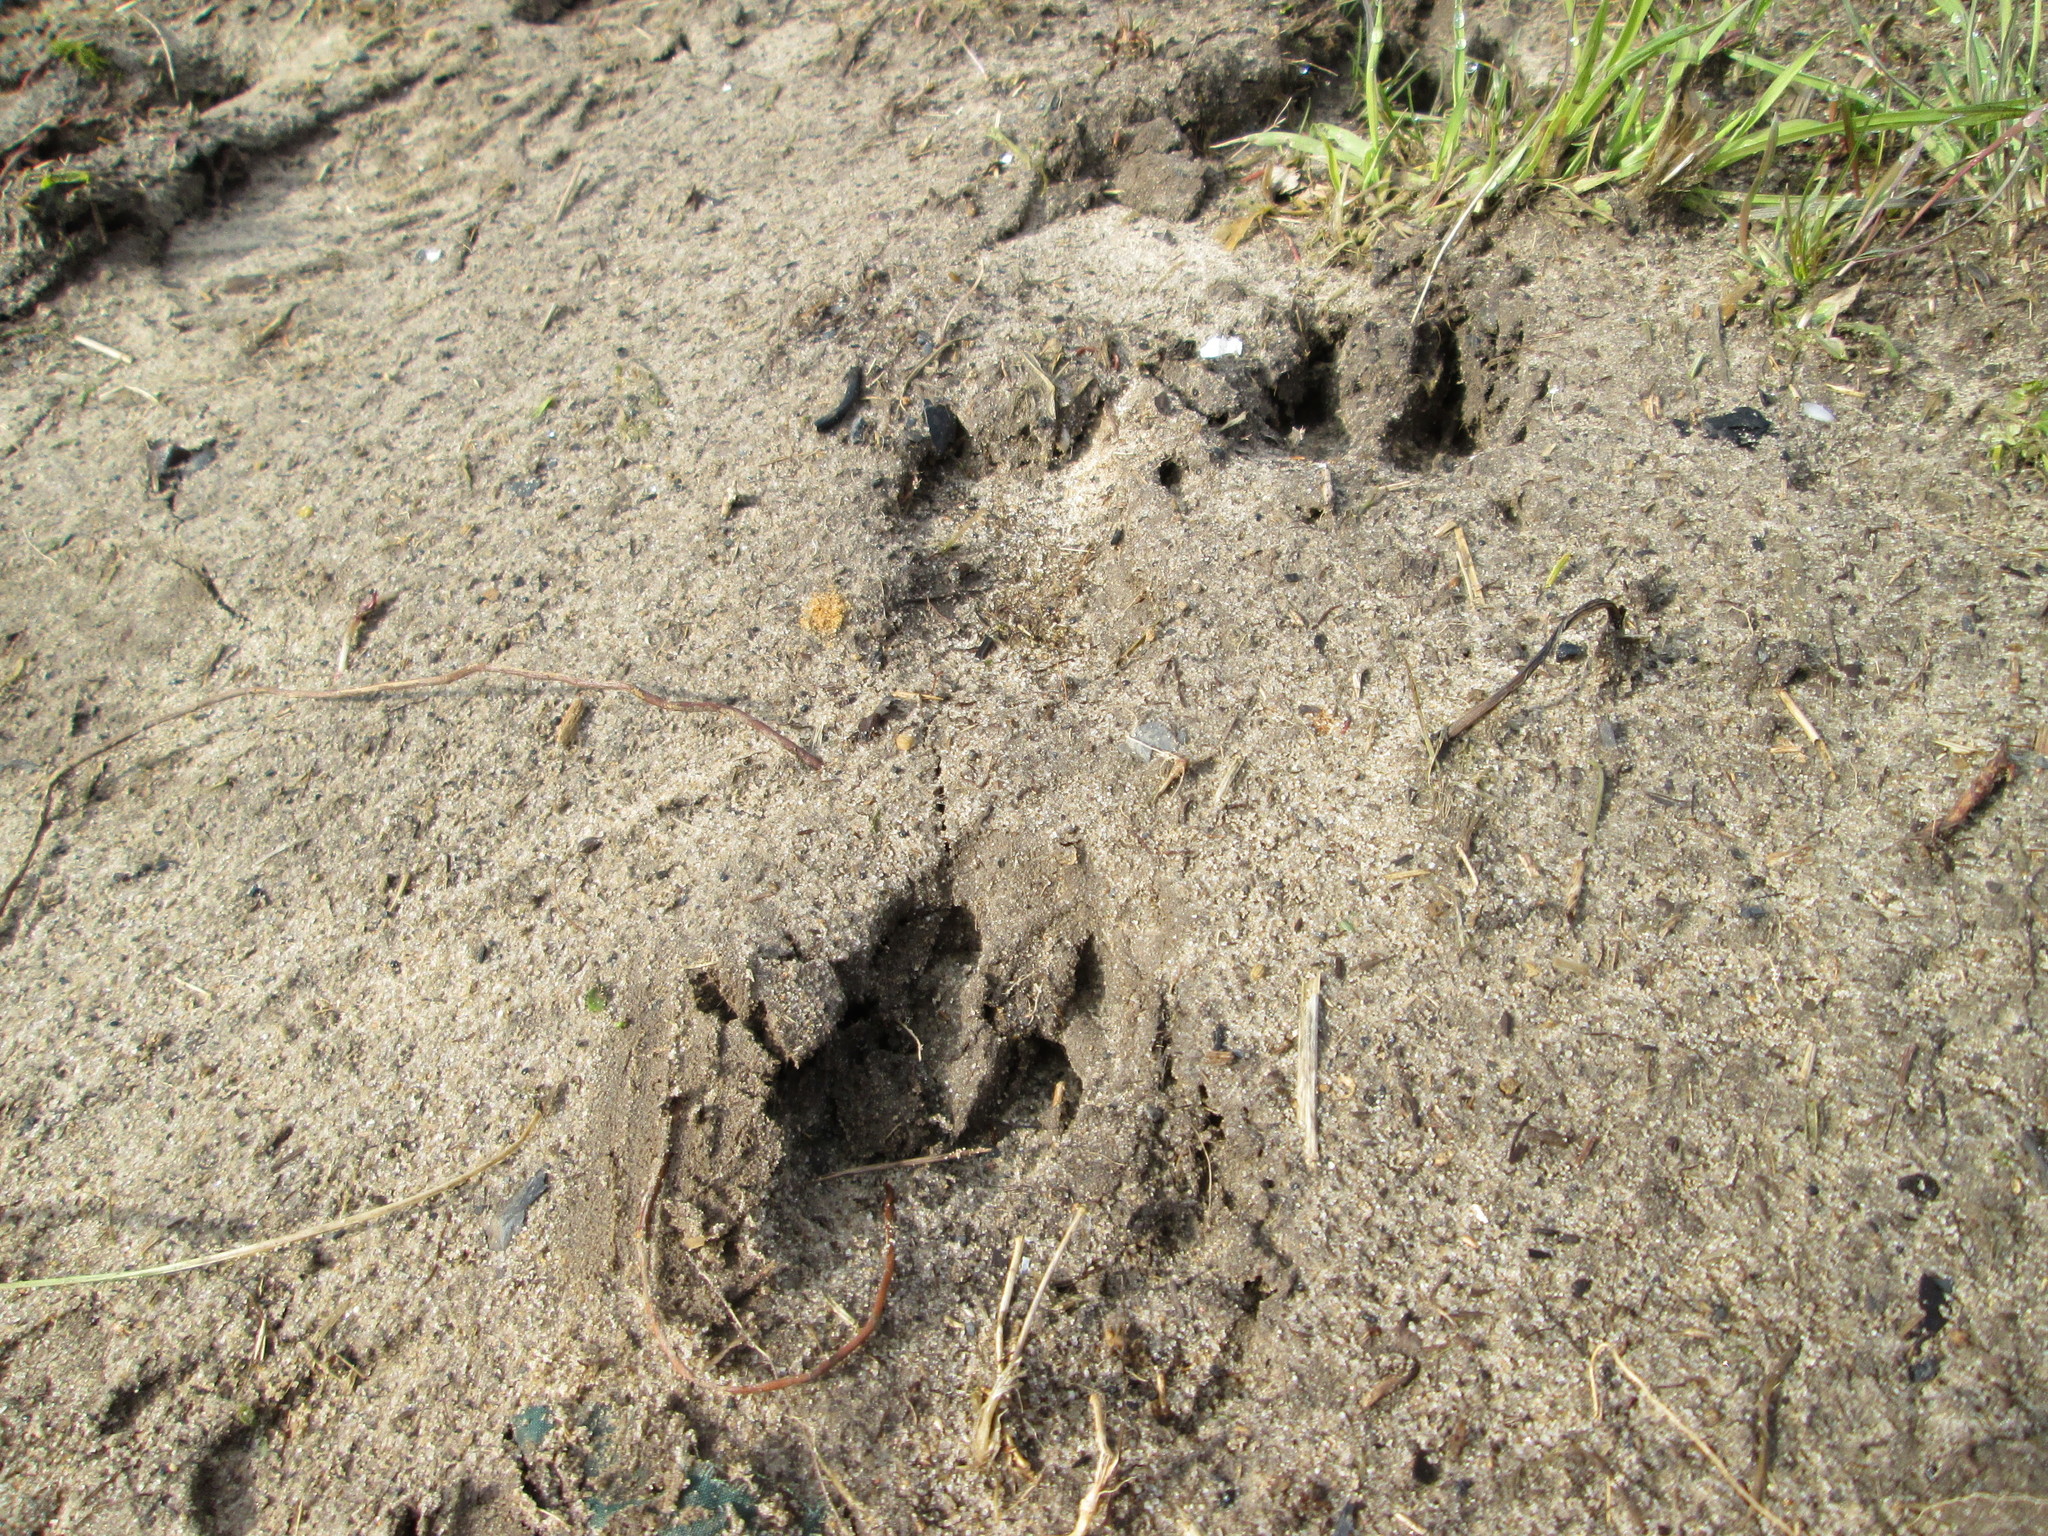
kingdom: Animalia
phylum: Chordata
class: Mammalia
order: Artiodactyla
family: Suidae
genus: Sus
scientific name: Sus scrofa
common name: Wild boar
